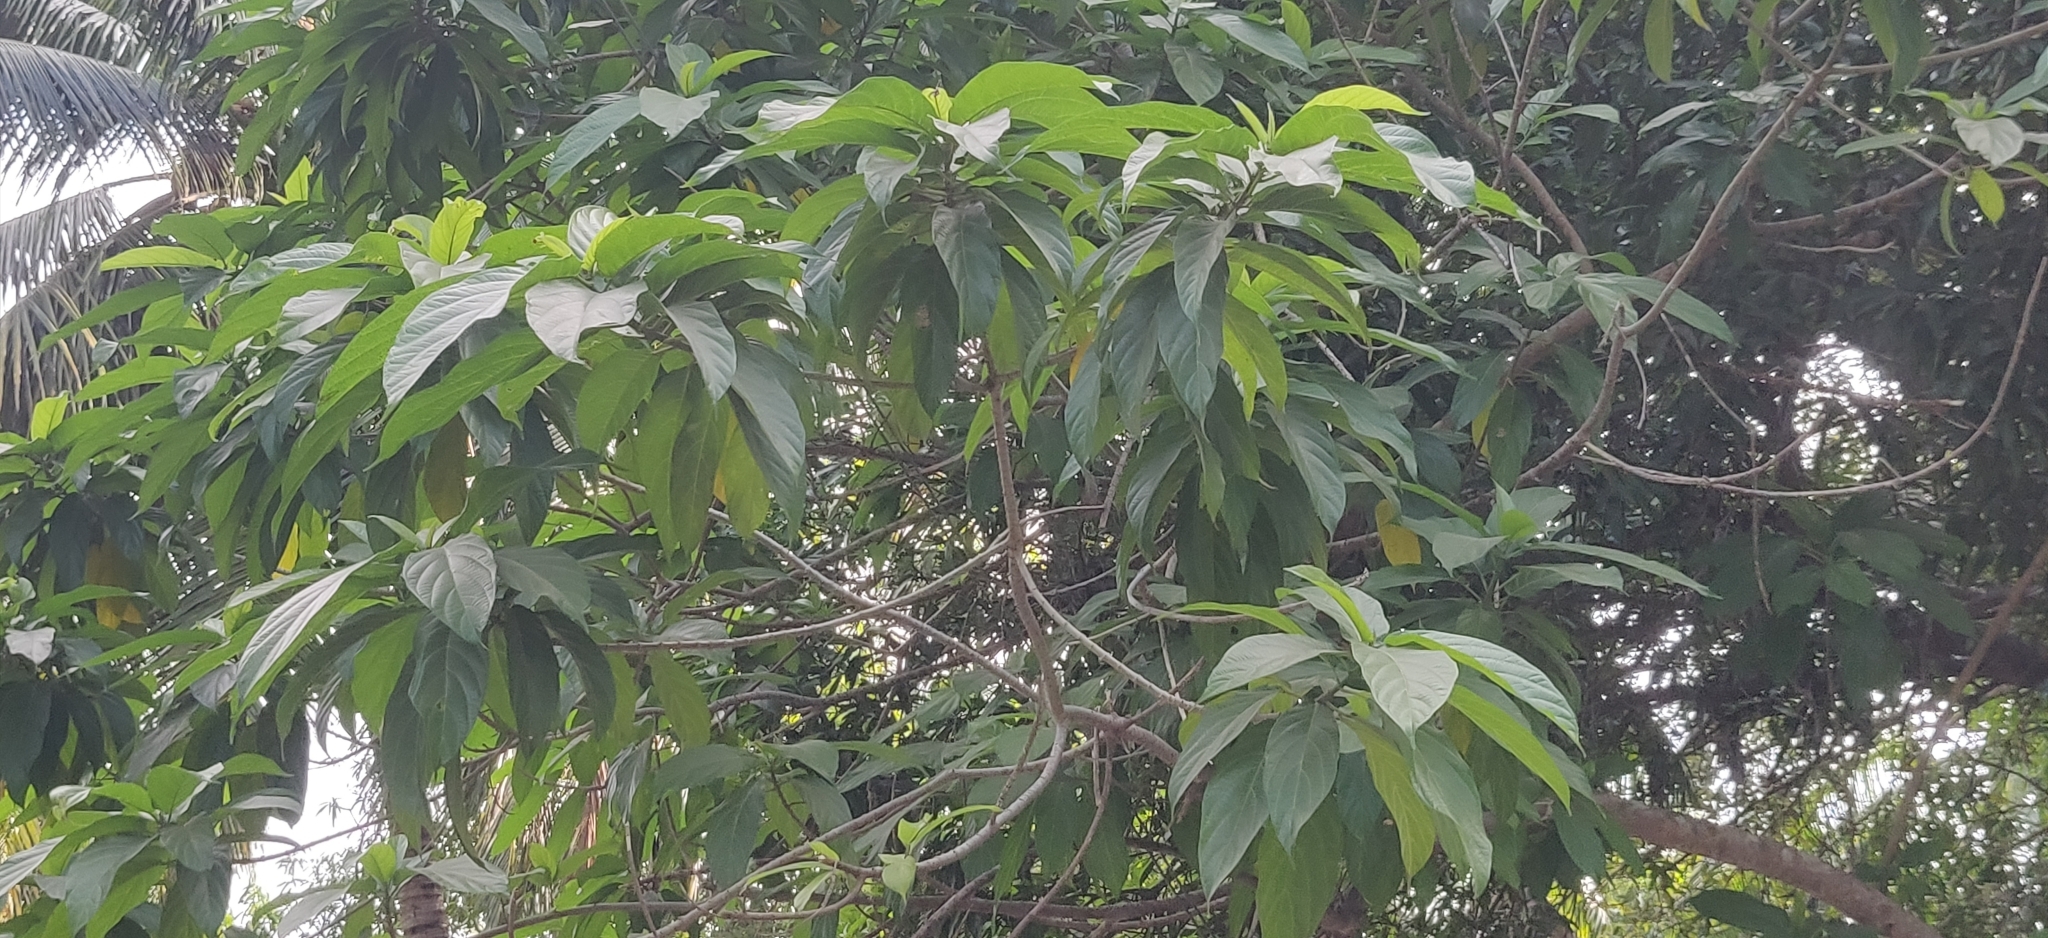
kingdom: Plantae
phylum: Tracheophyta
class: Magnoliopsida
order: Rosales
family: Moraceae
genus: Ficus
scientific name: Ficus hispida
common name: Hairy fig
